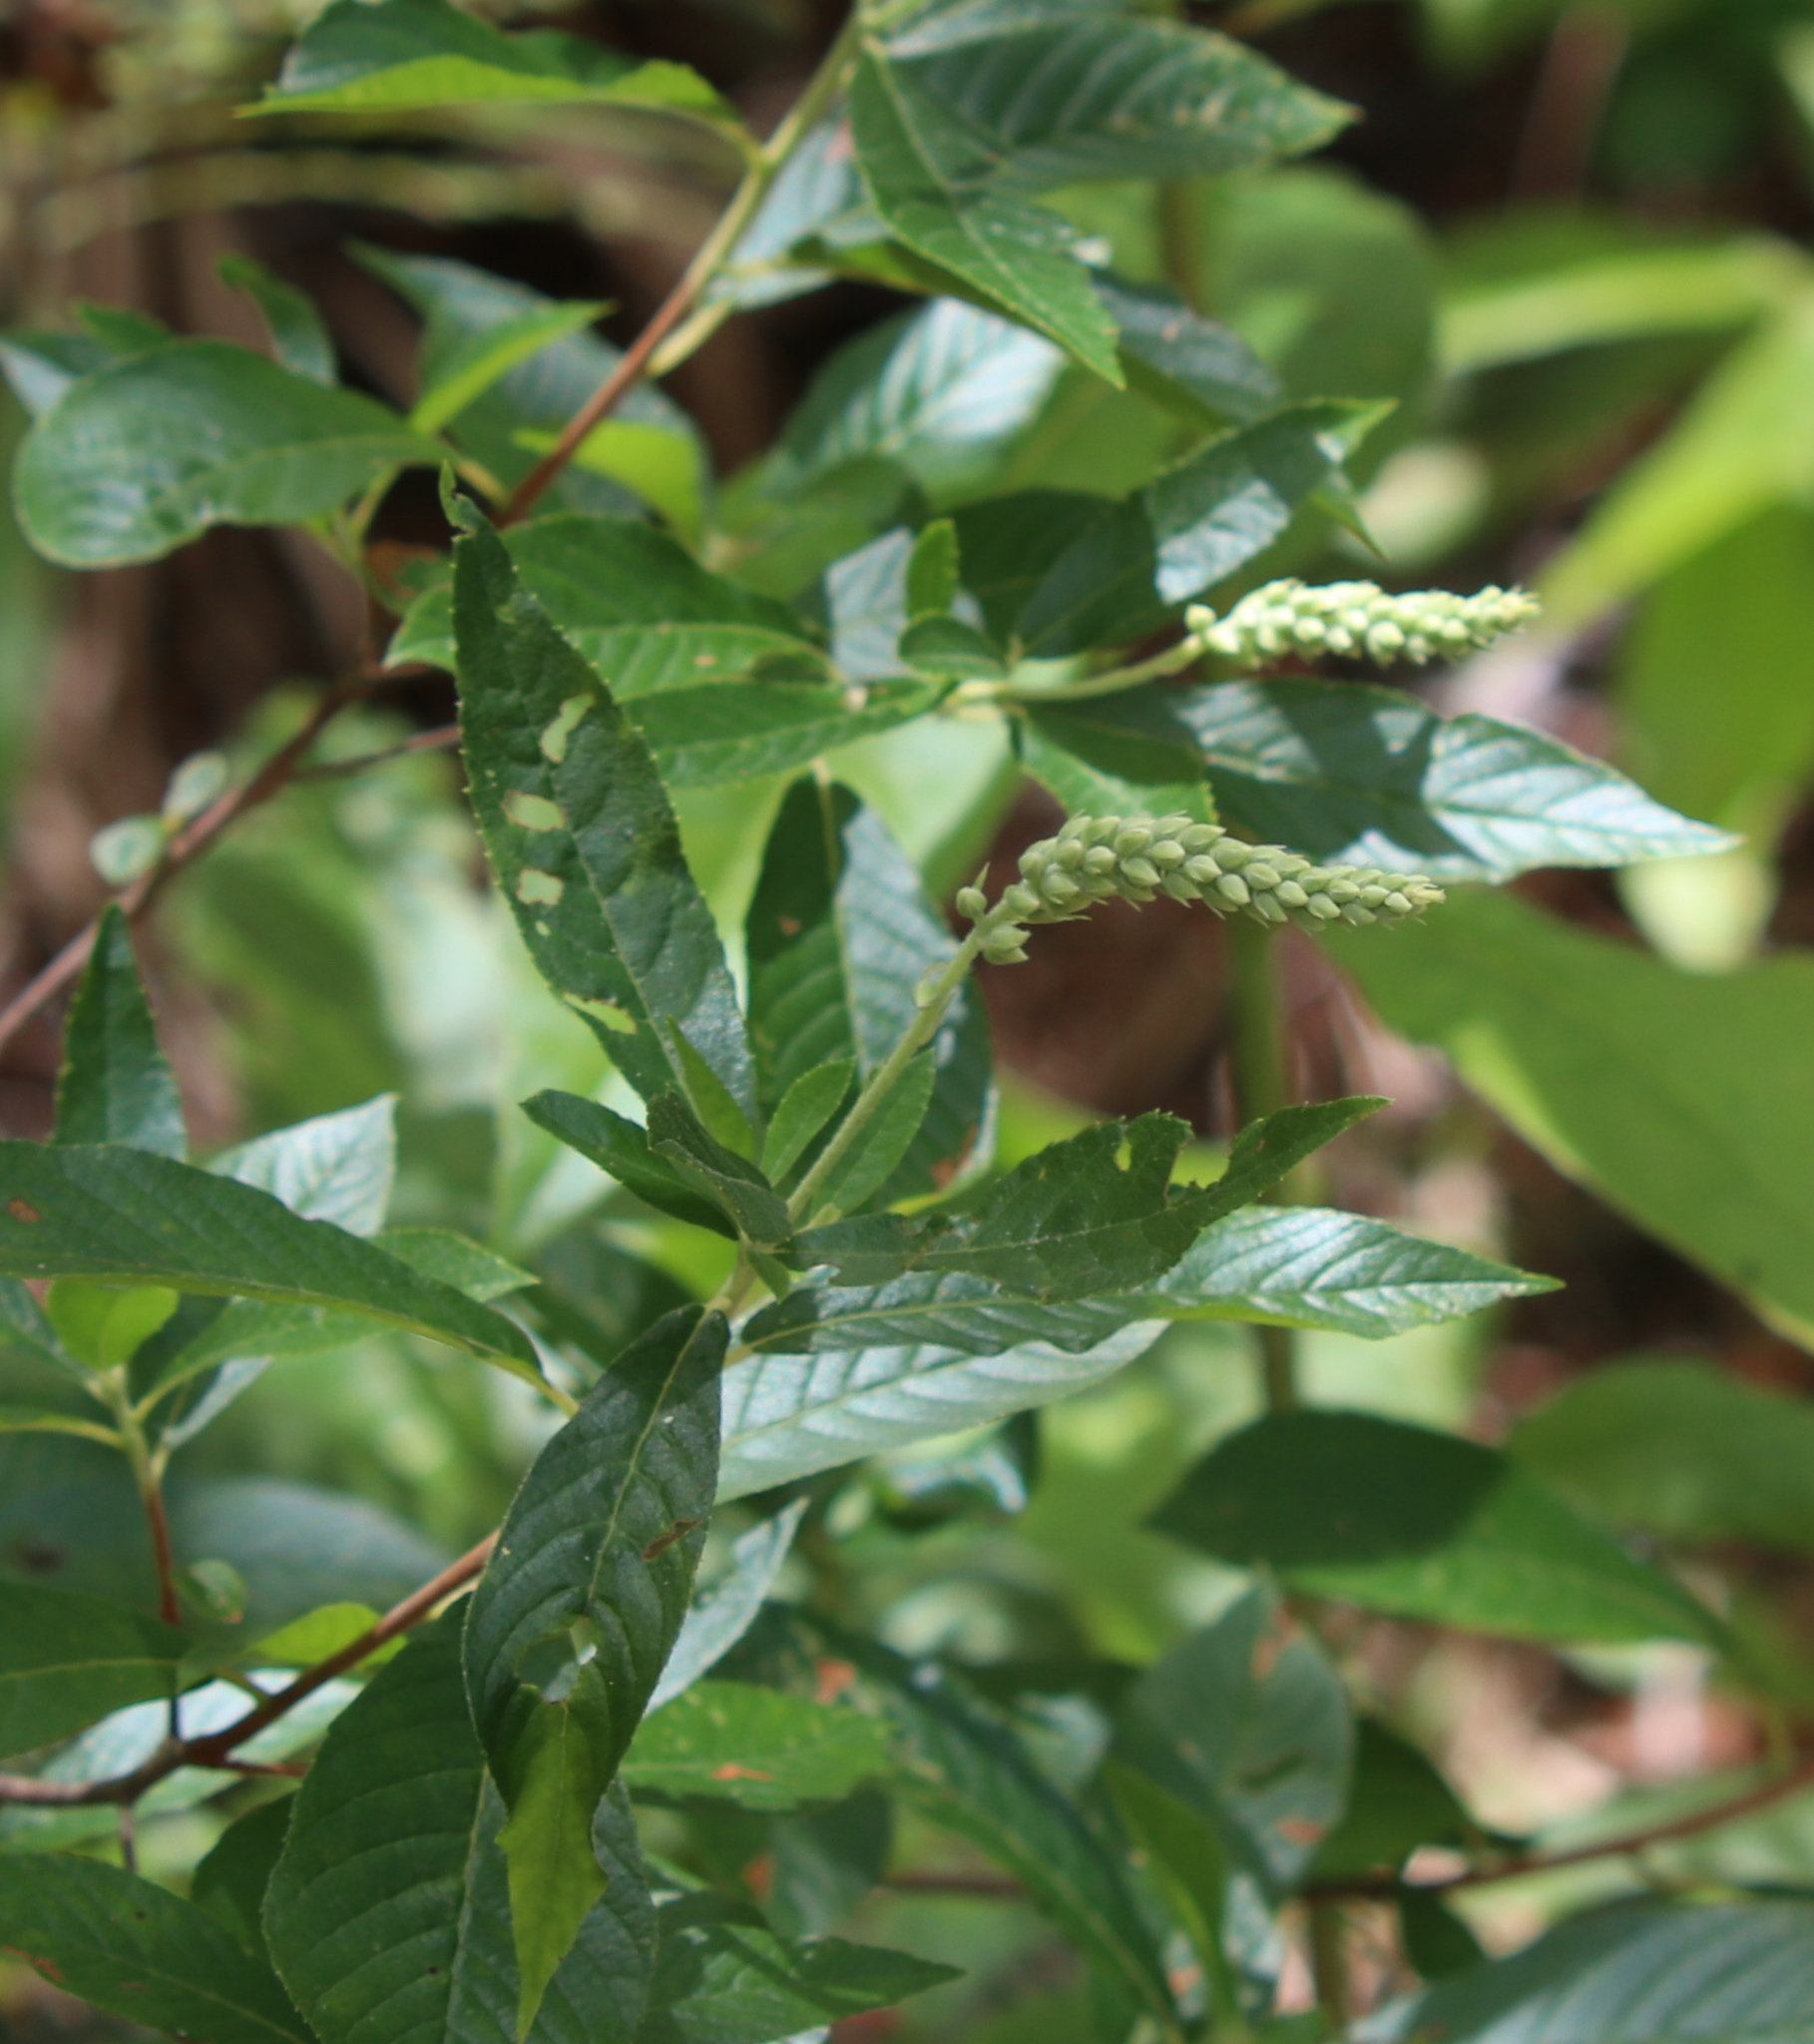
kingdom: Plantae
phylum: Tracheophyta
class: Magnoliopsida
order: Ericales
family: Clethraceae
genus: Clethra
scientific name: Clethra alnifolia
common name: Sweet pepperbush
